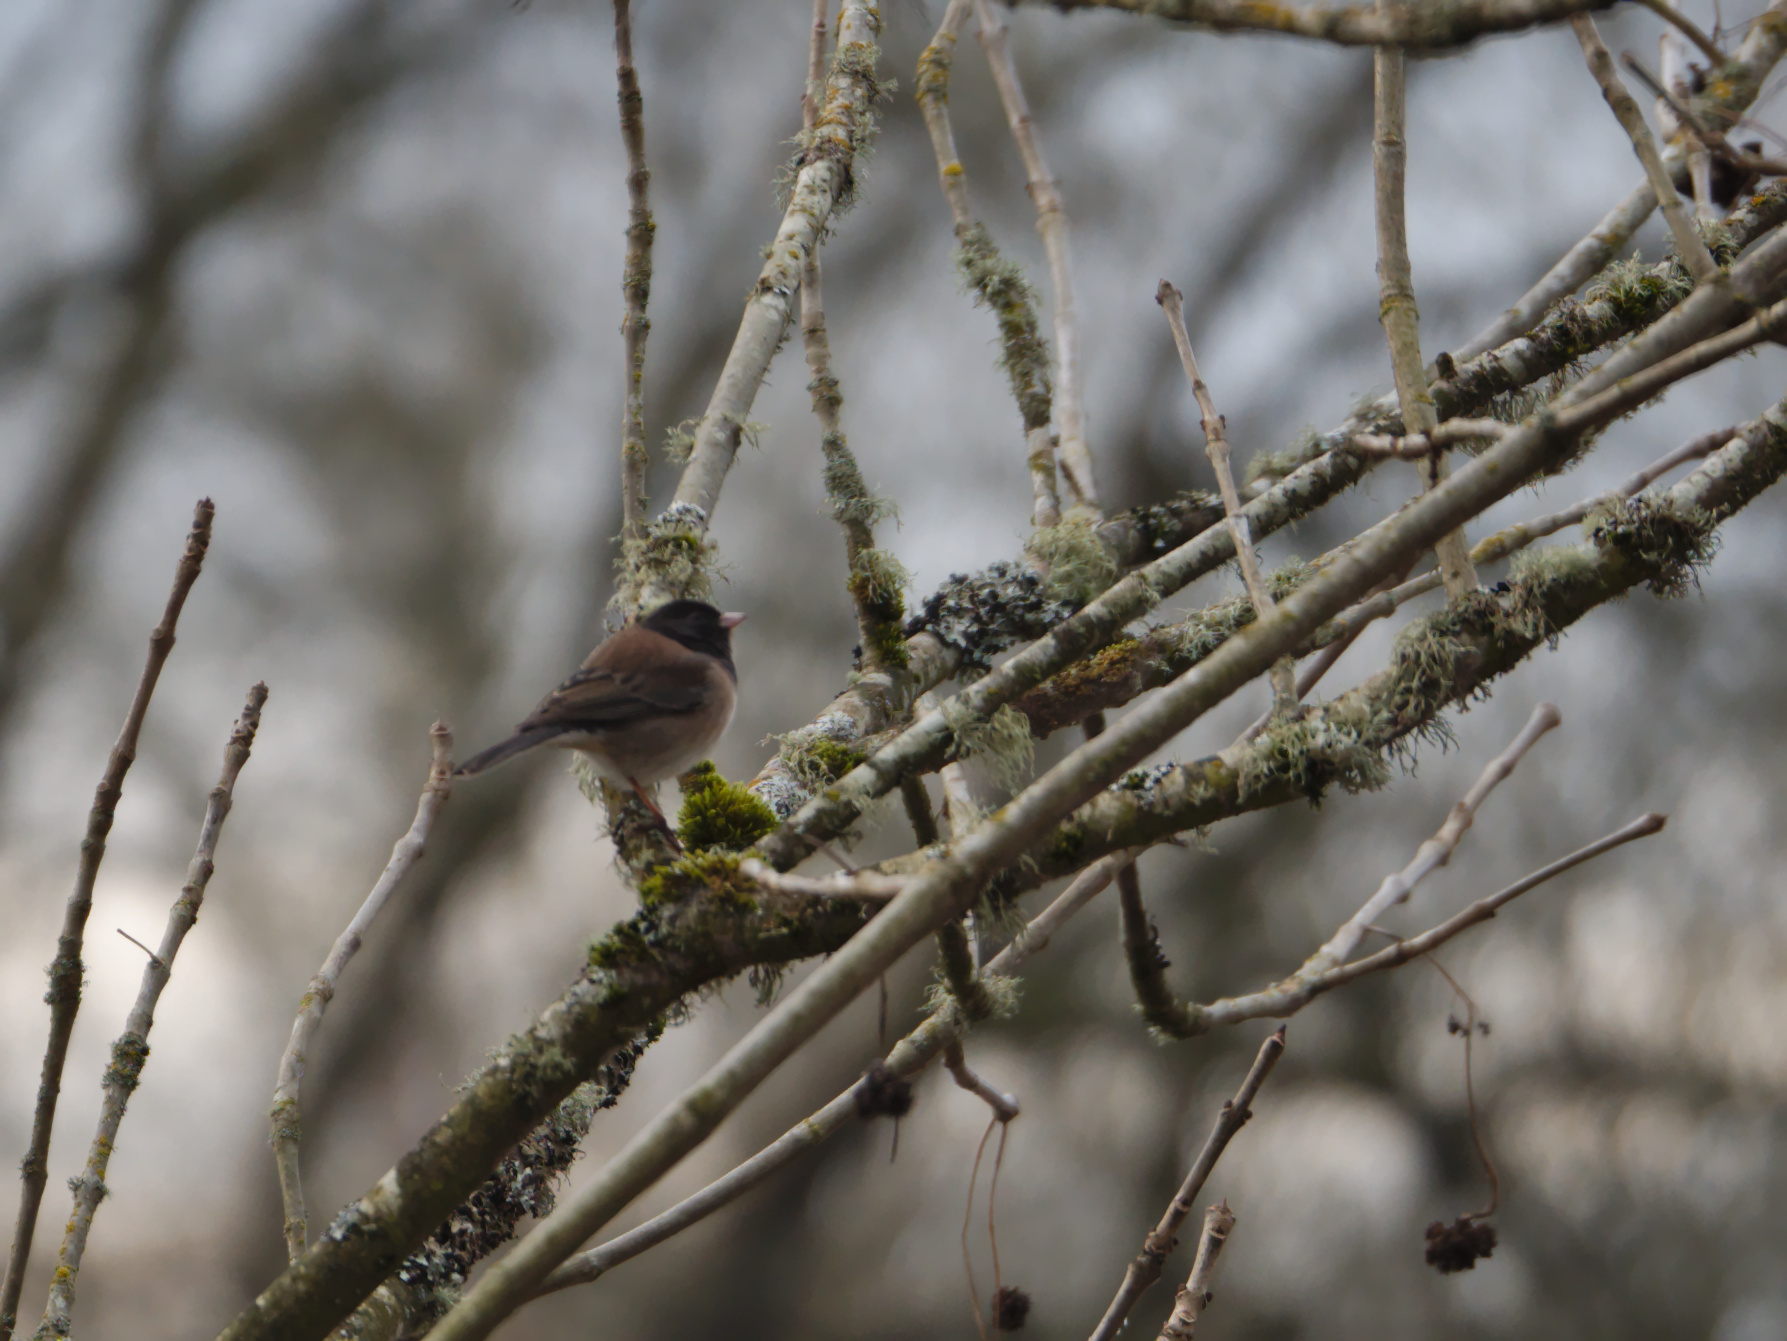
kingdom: Animalia
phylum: Chordata
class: Aves
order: Passeriformes
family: Passerellidae
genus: Junco
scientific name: Junco hyemalis
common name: Dark-eyed junco
